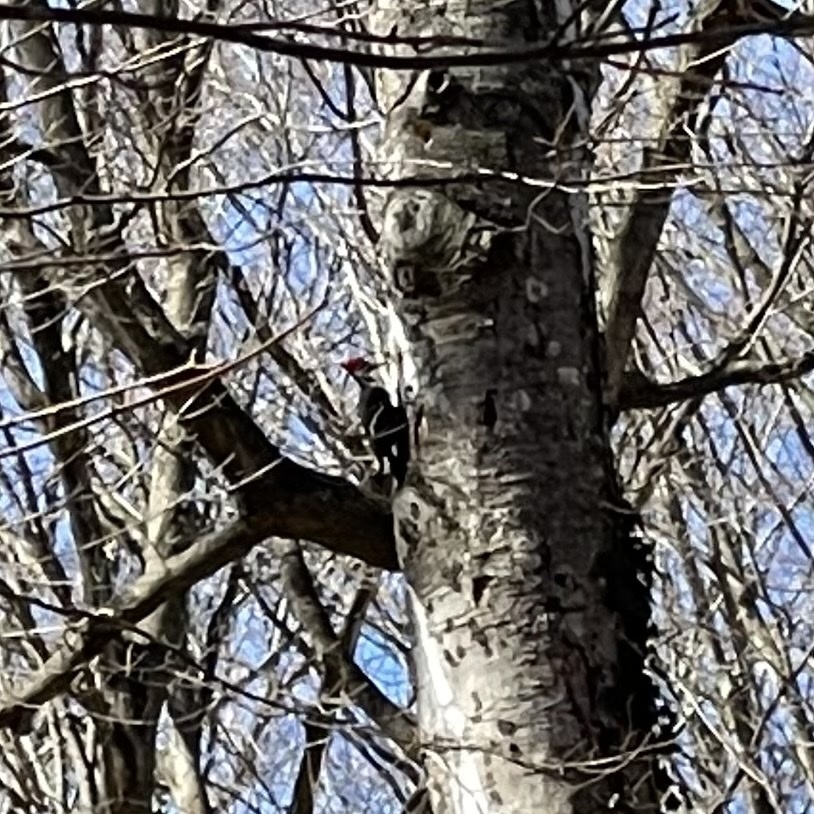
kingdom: Animalia
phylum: Chordata
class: Aves
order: Piciformes
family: Picidae
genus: Dryocopus
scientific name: Dryocopus pileatus
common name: Pileated woodpecker
